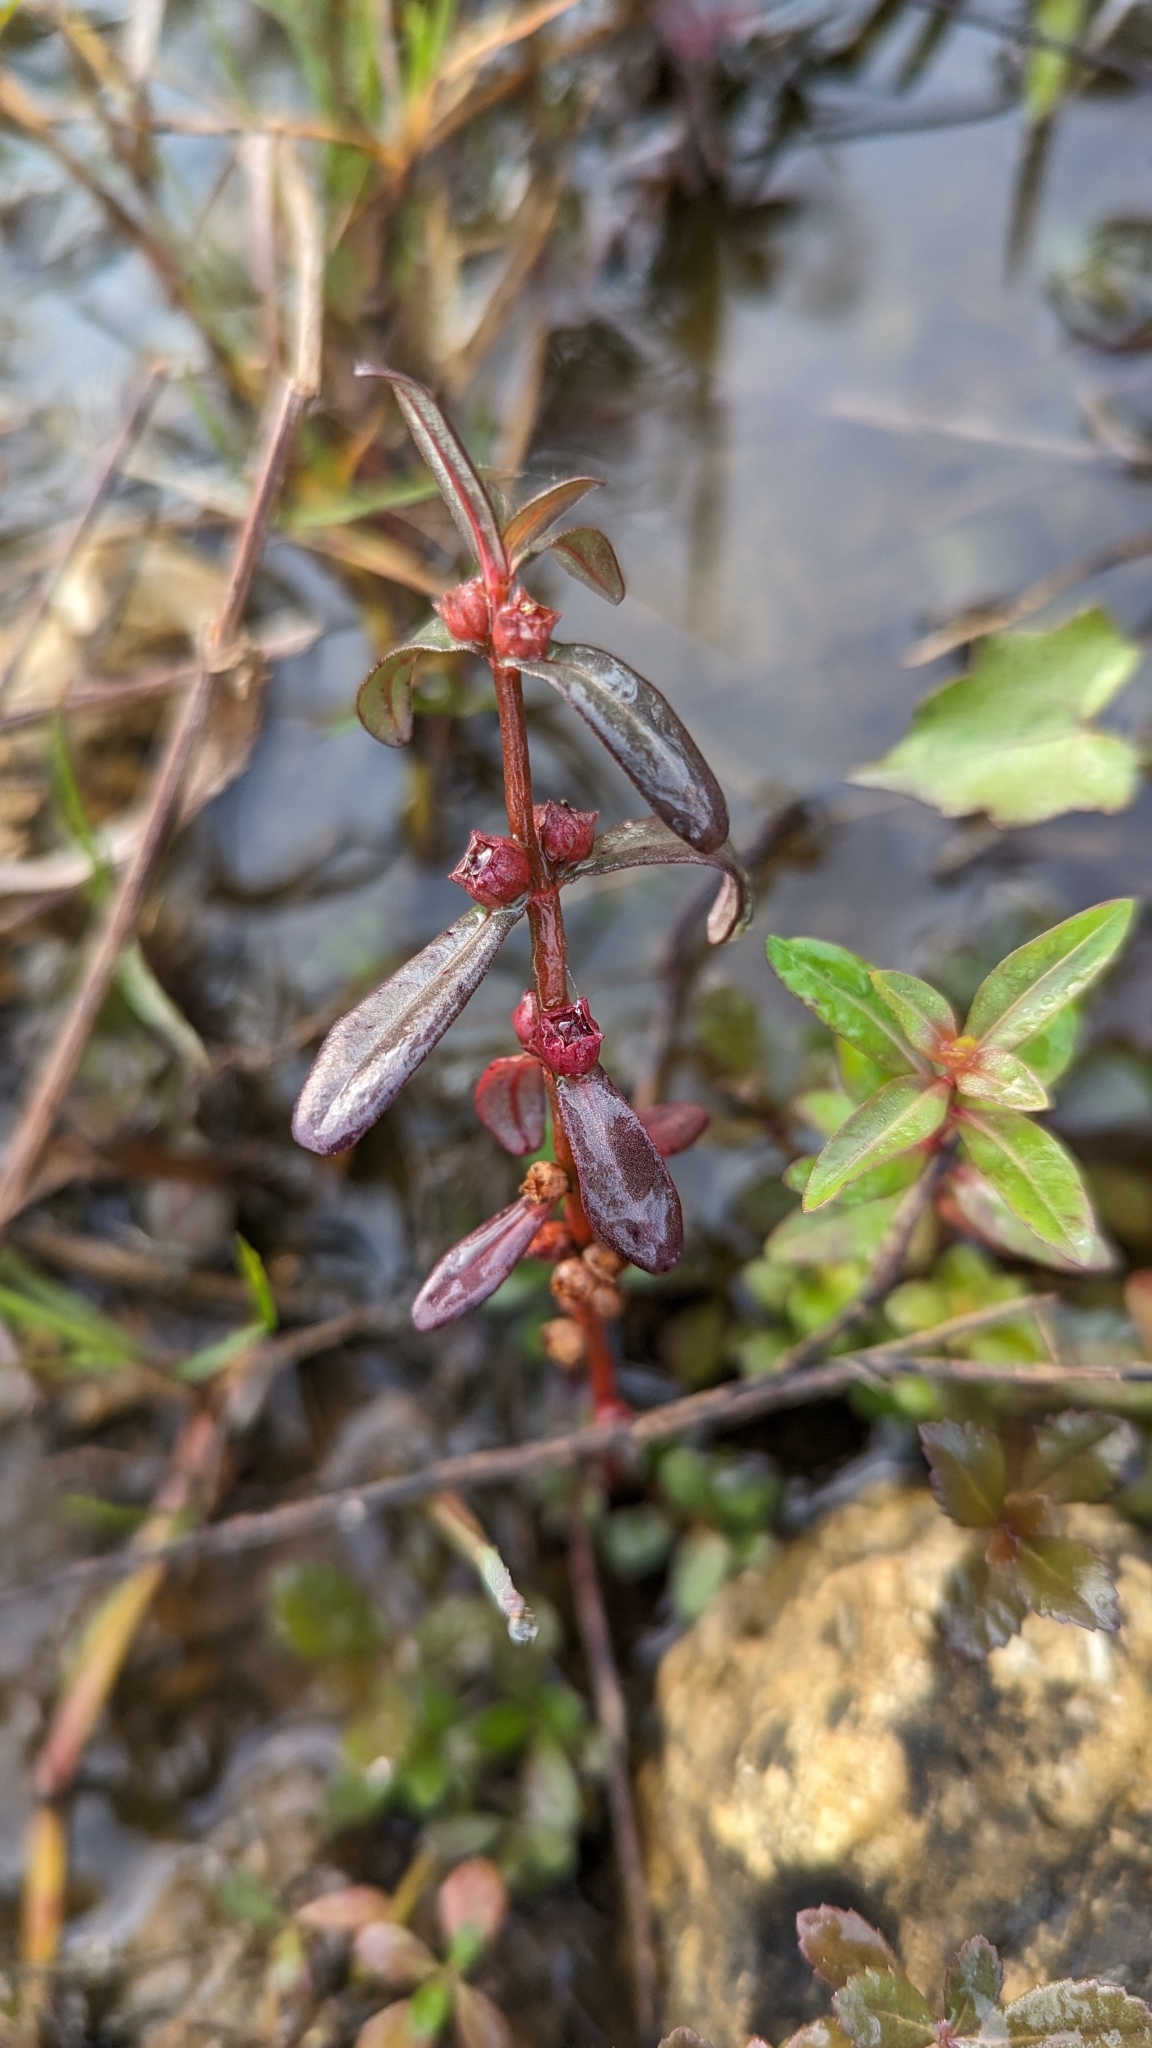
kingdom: Plantae
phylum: Tracheophyta
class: Magnoliopsida
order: Myrtales
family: Lythraceae
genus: Ammannia
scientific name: Ammannia latifolia
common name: Toothcup
